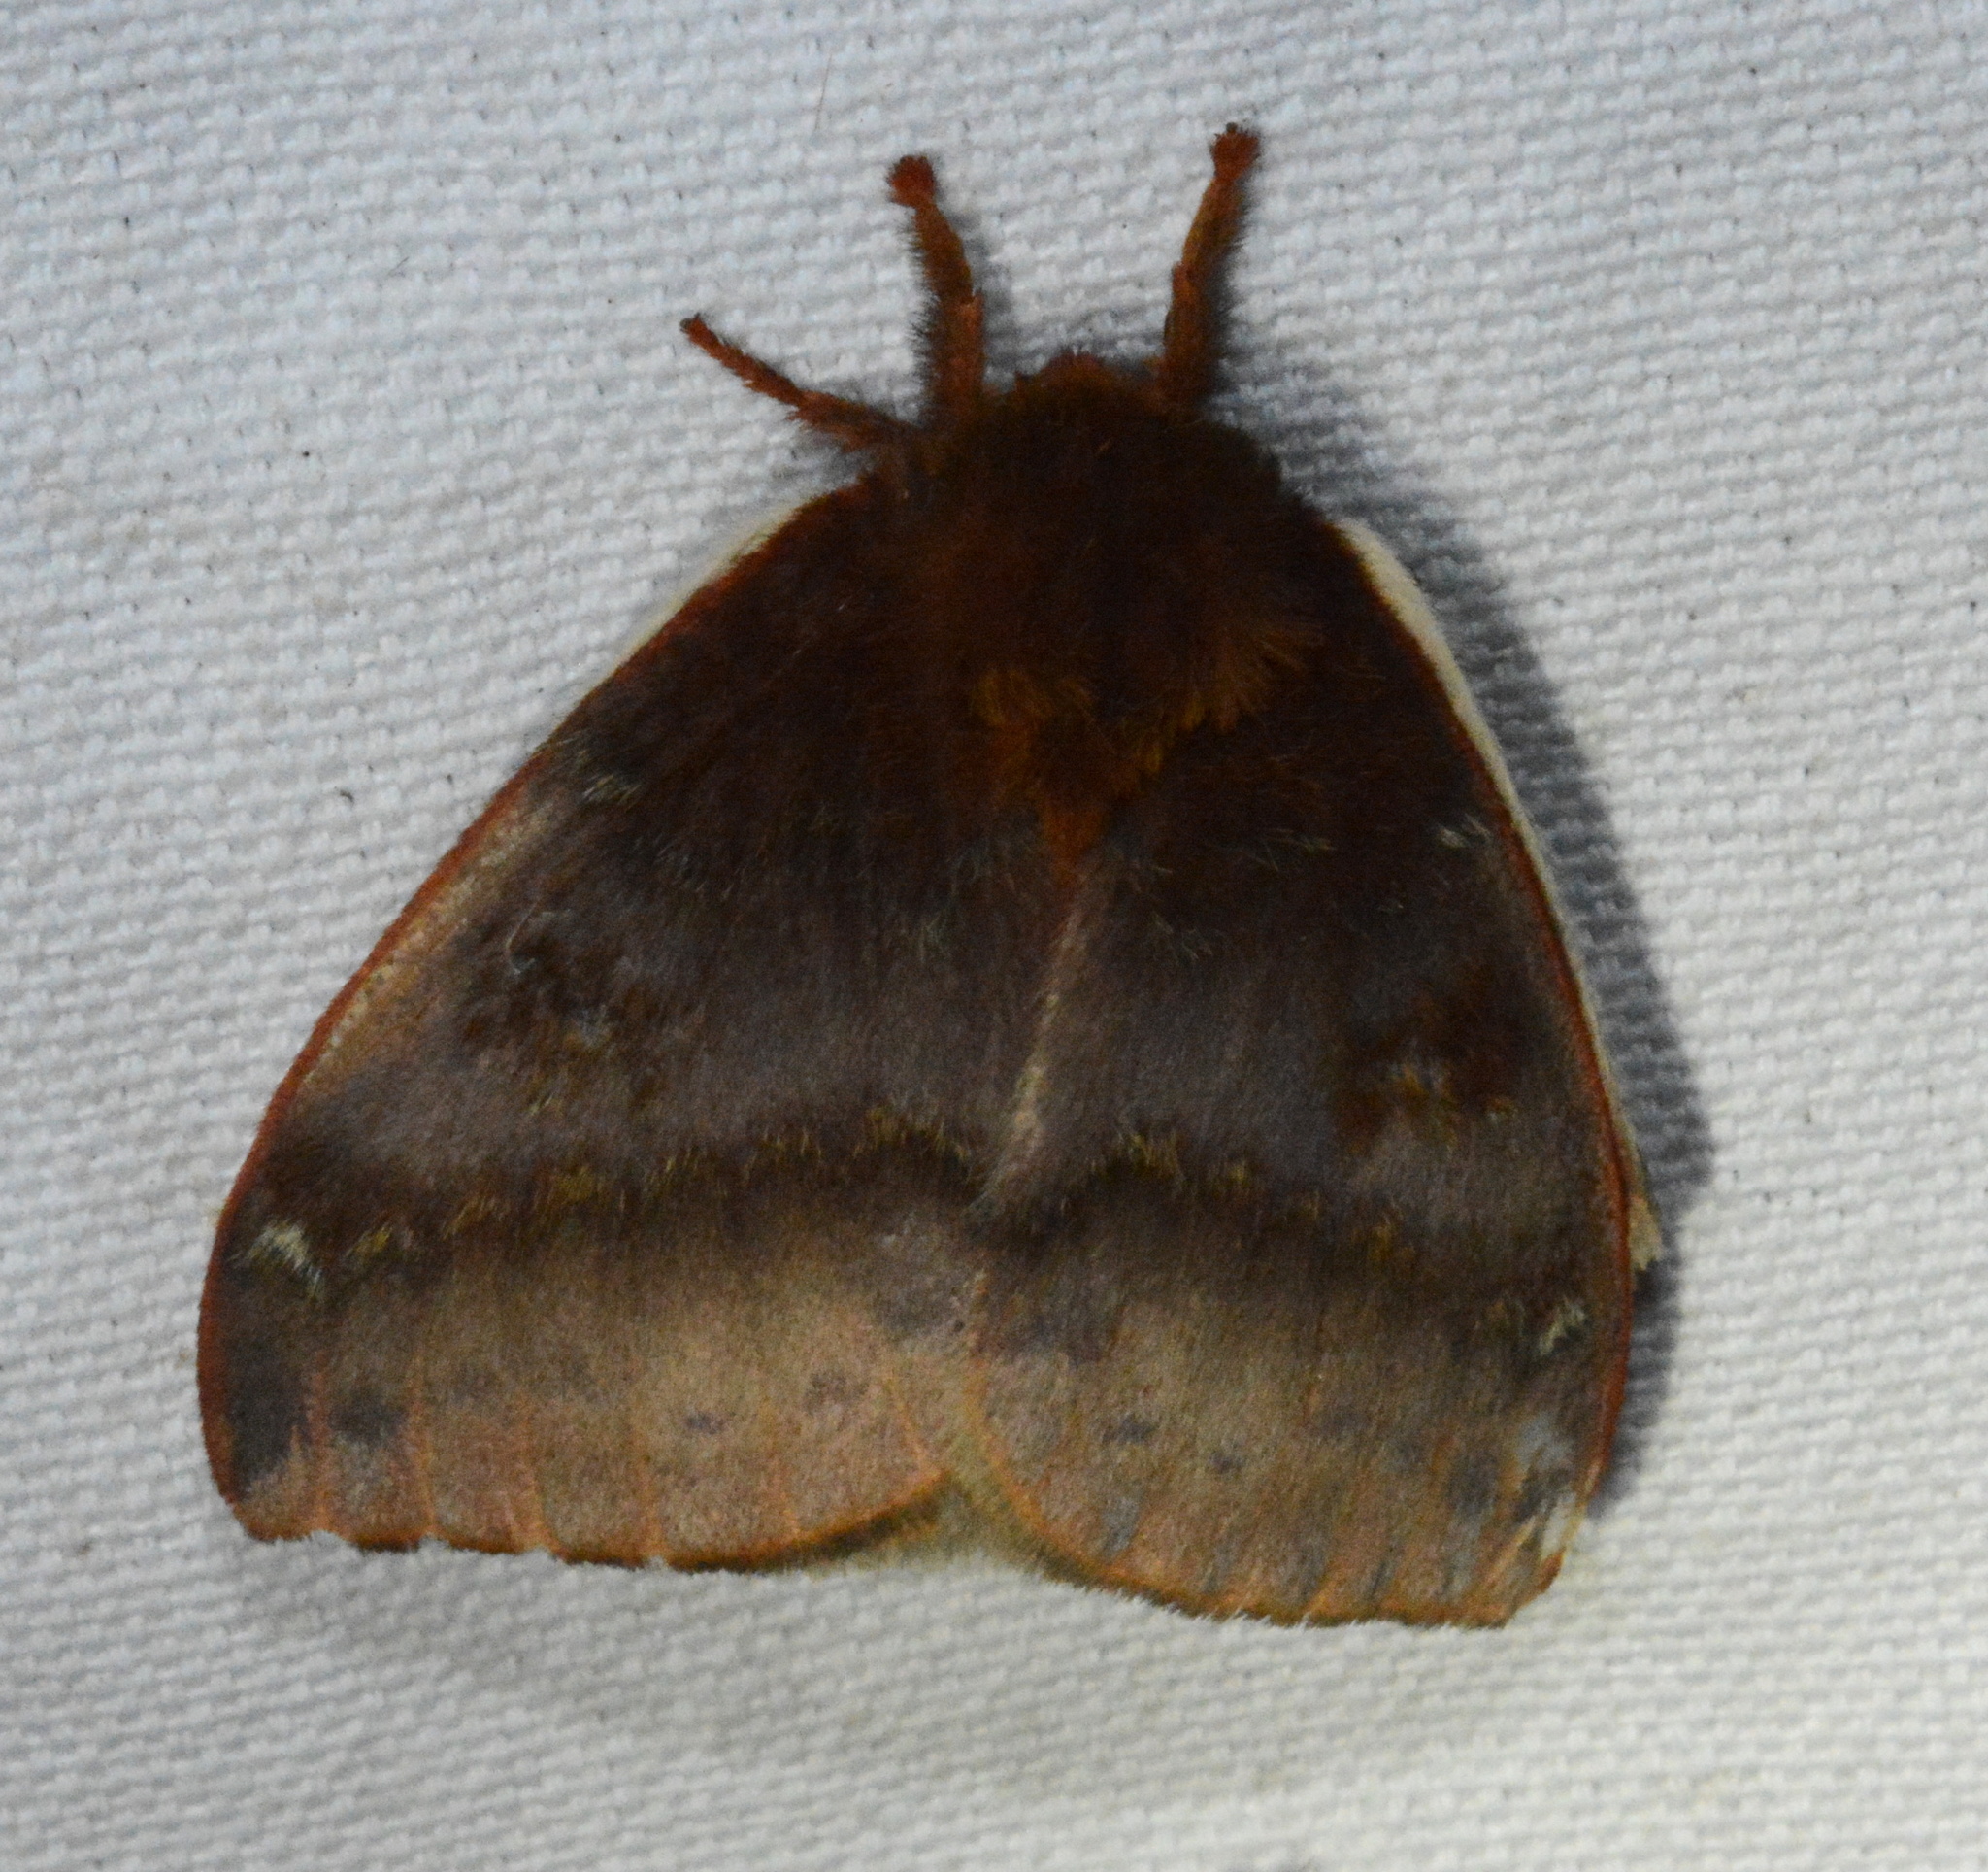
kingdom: Animalia
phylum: Arthropoda
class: Insecta
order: Lepidoptera
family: Saturniidae
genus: Automeris
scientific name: Automeris io
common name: Io moth
